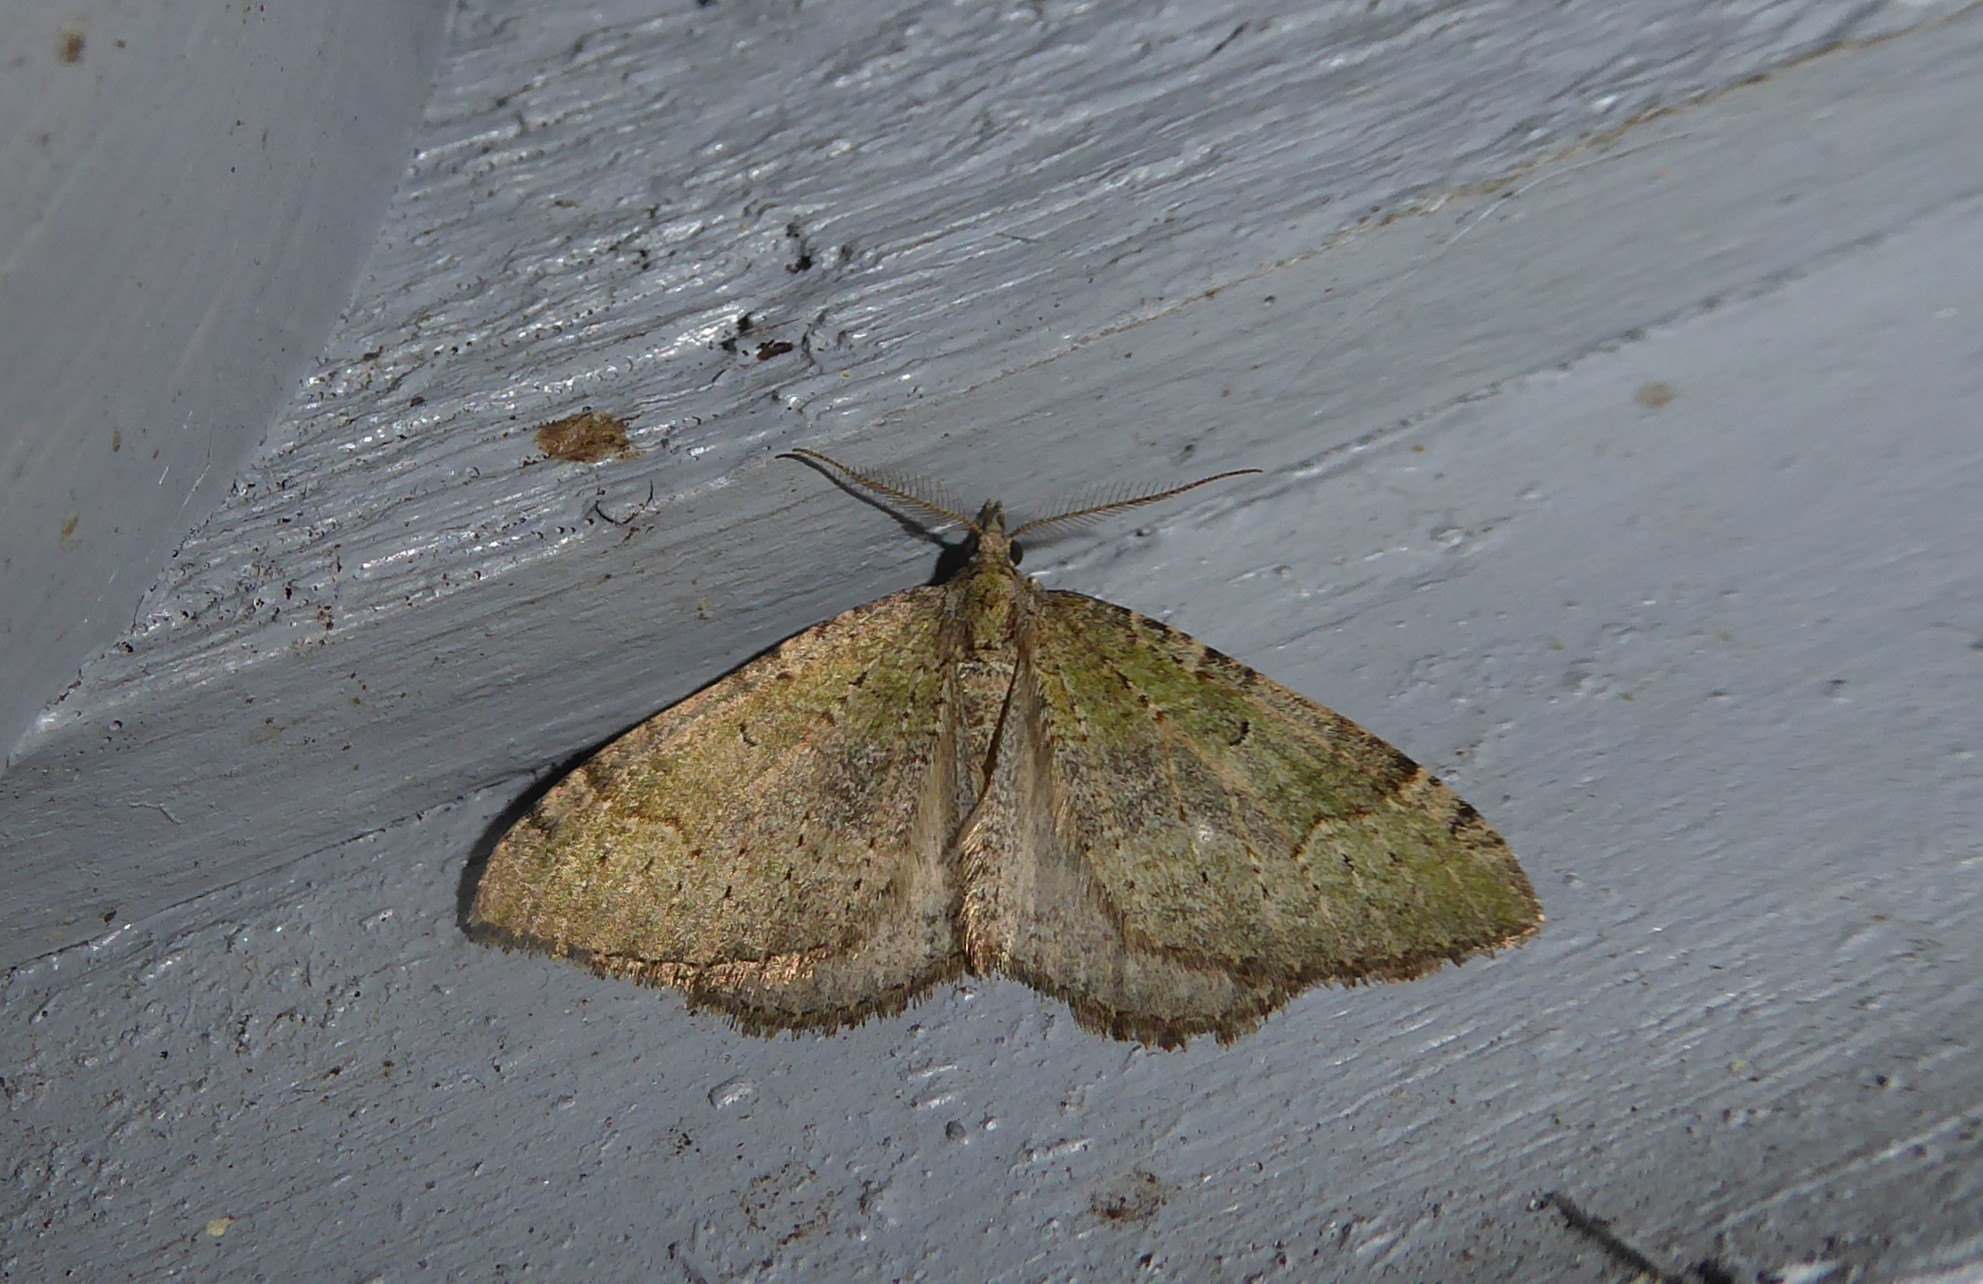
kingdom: Animalia
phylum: Arthropoda
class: Insecta
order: Lepidoptera
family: Geometridae
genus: Epyaxa
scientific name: Epyaxa rosearia
